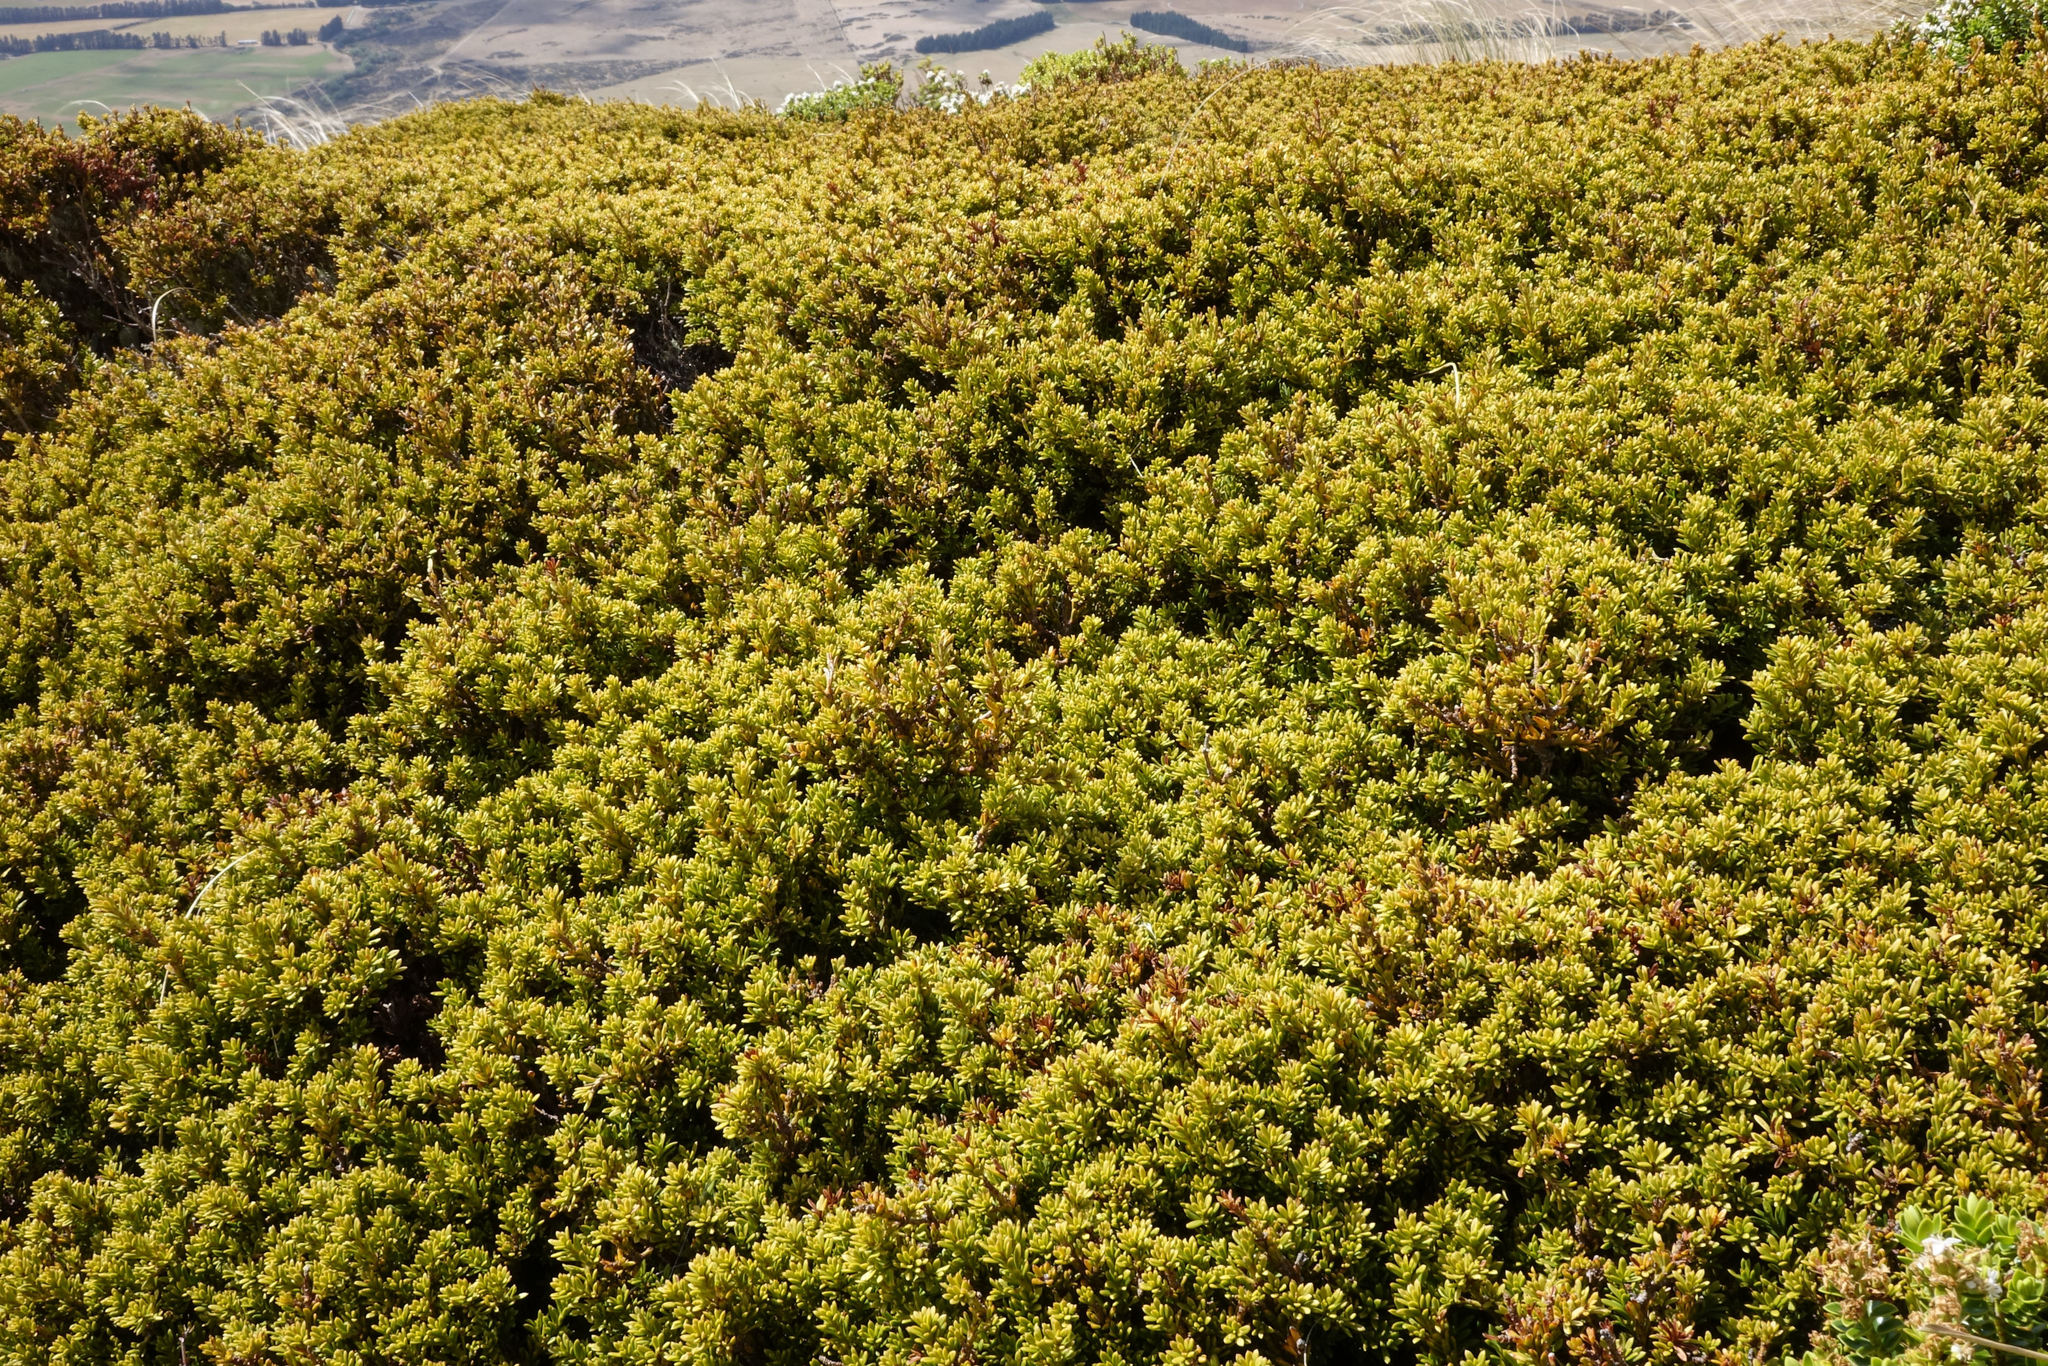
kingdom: Plantae
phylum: Tracheophyta
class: Pinopsida
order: Pinales
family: Podocarpaceae
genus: Podocarpus
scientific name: Podocarpus nivalis
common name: Alpine totara
